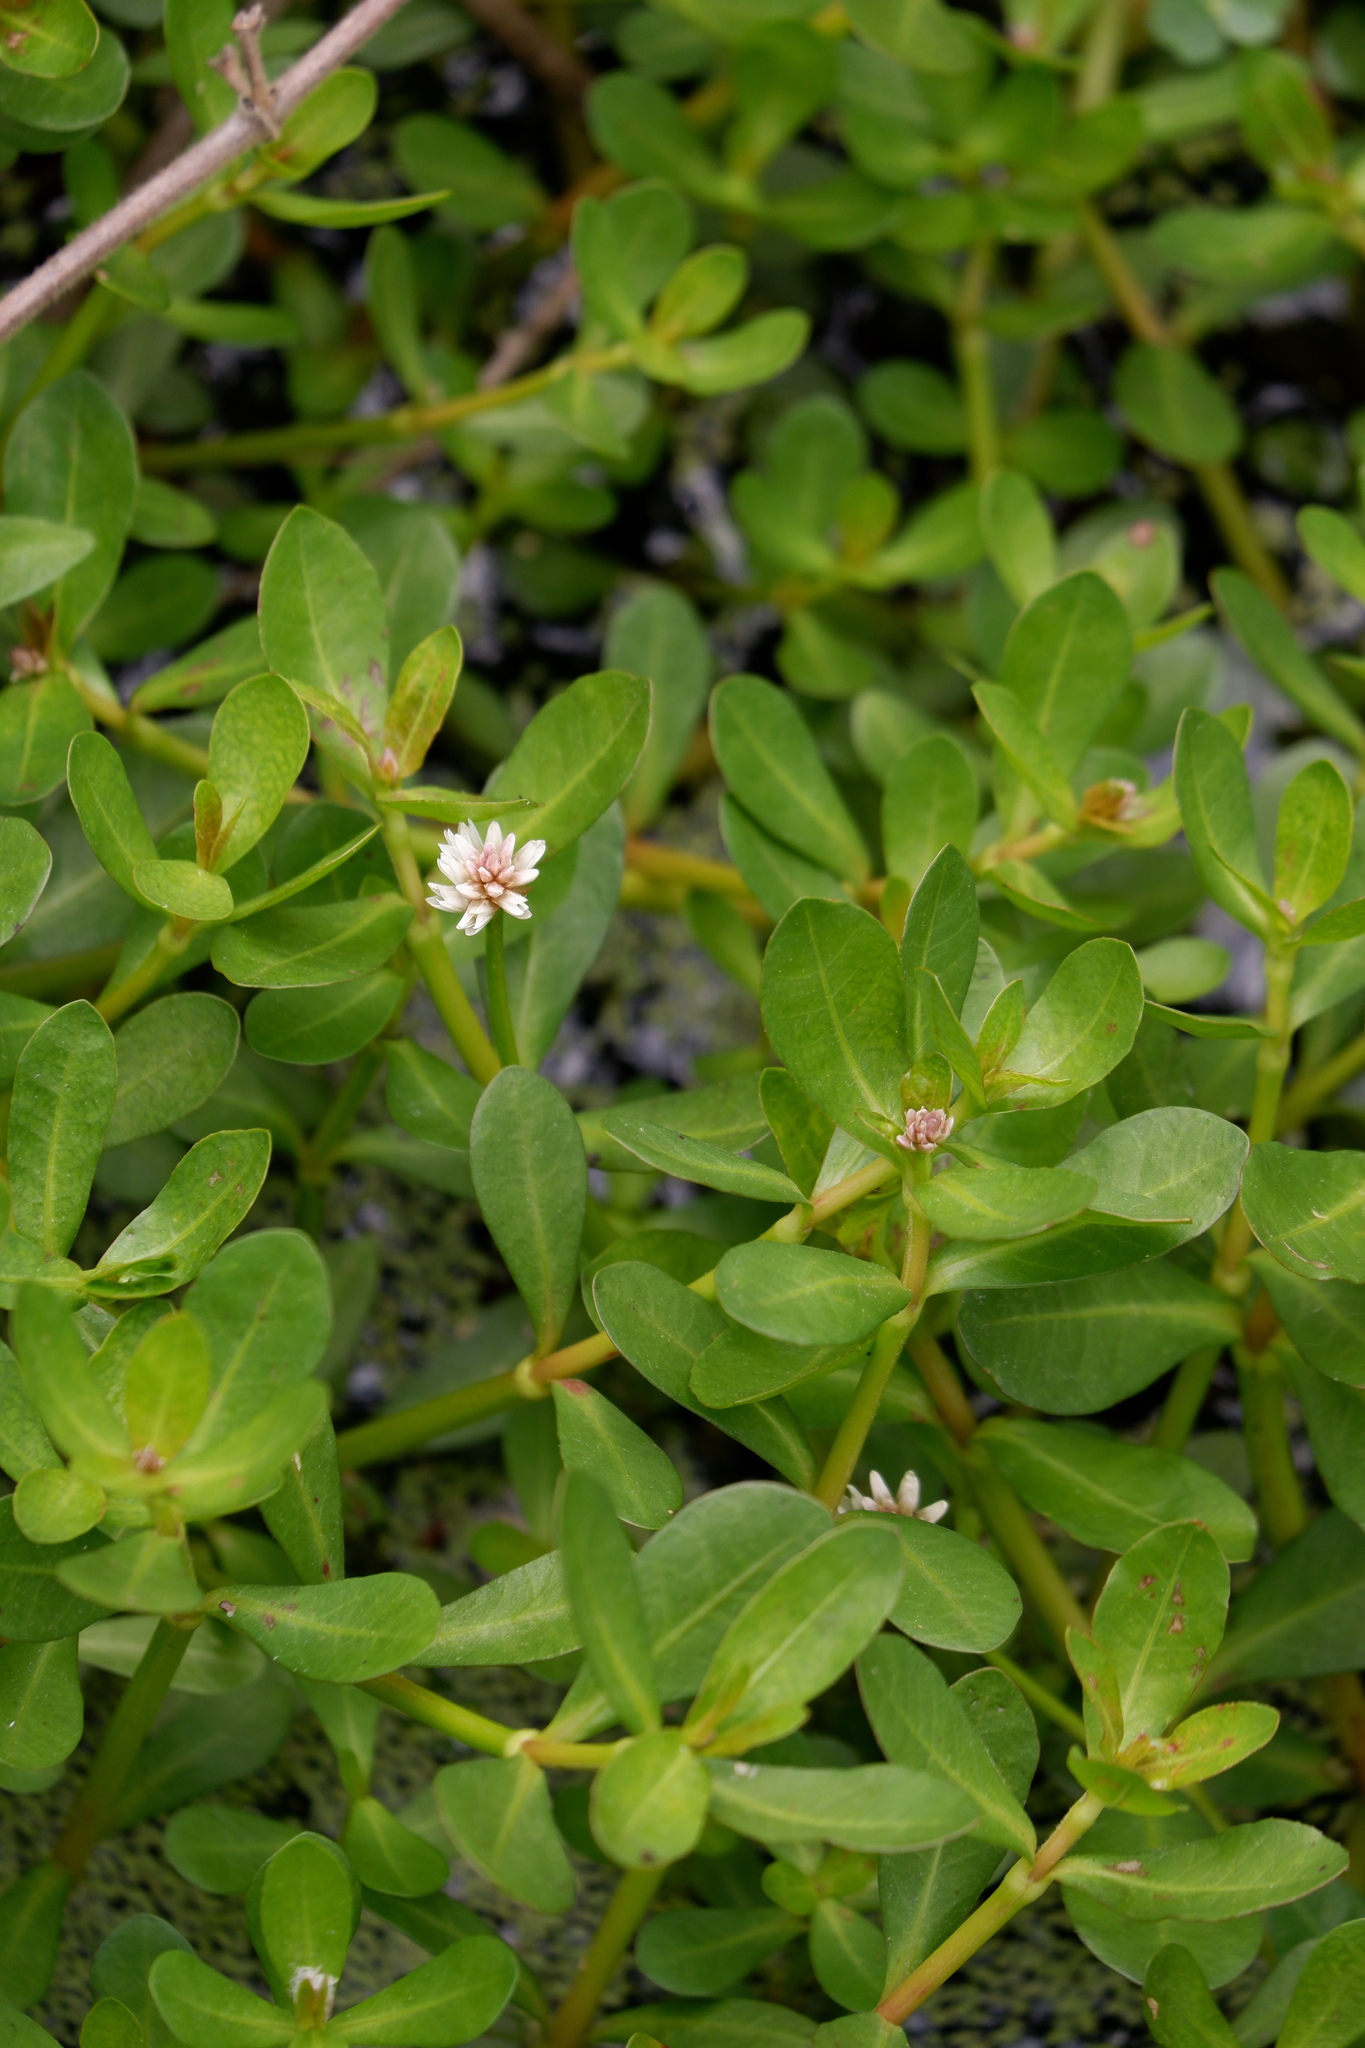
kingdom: Plantae
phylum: Tracheophyta
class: Magnoliopsida
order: Caryophyllales
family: Amaranthaceae
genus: Alternanthera
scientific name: Alternanthera philoxeroides
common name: Alligatorweed
